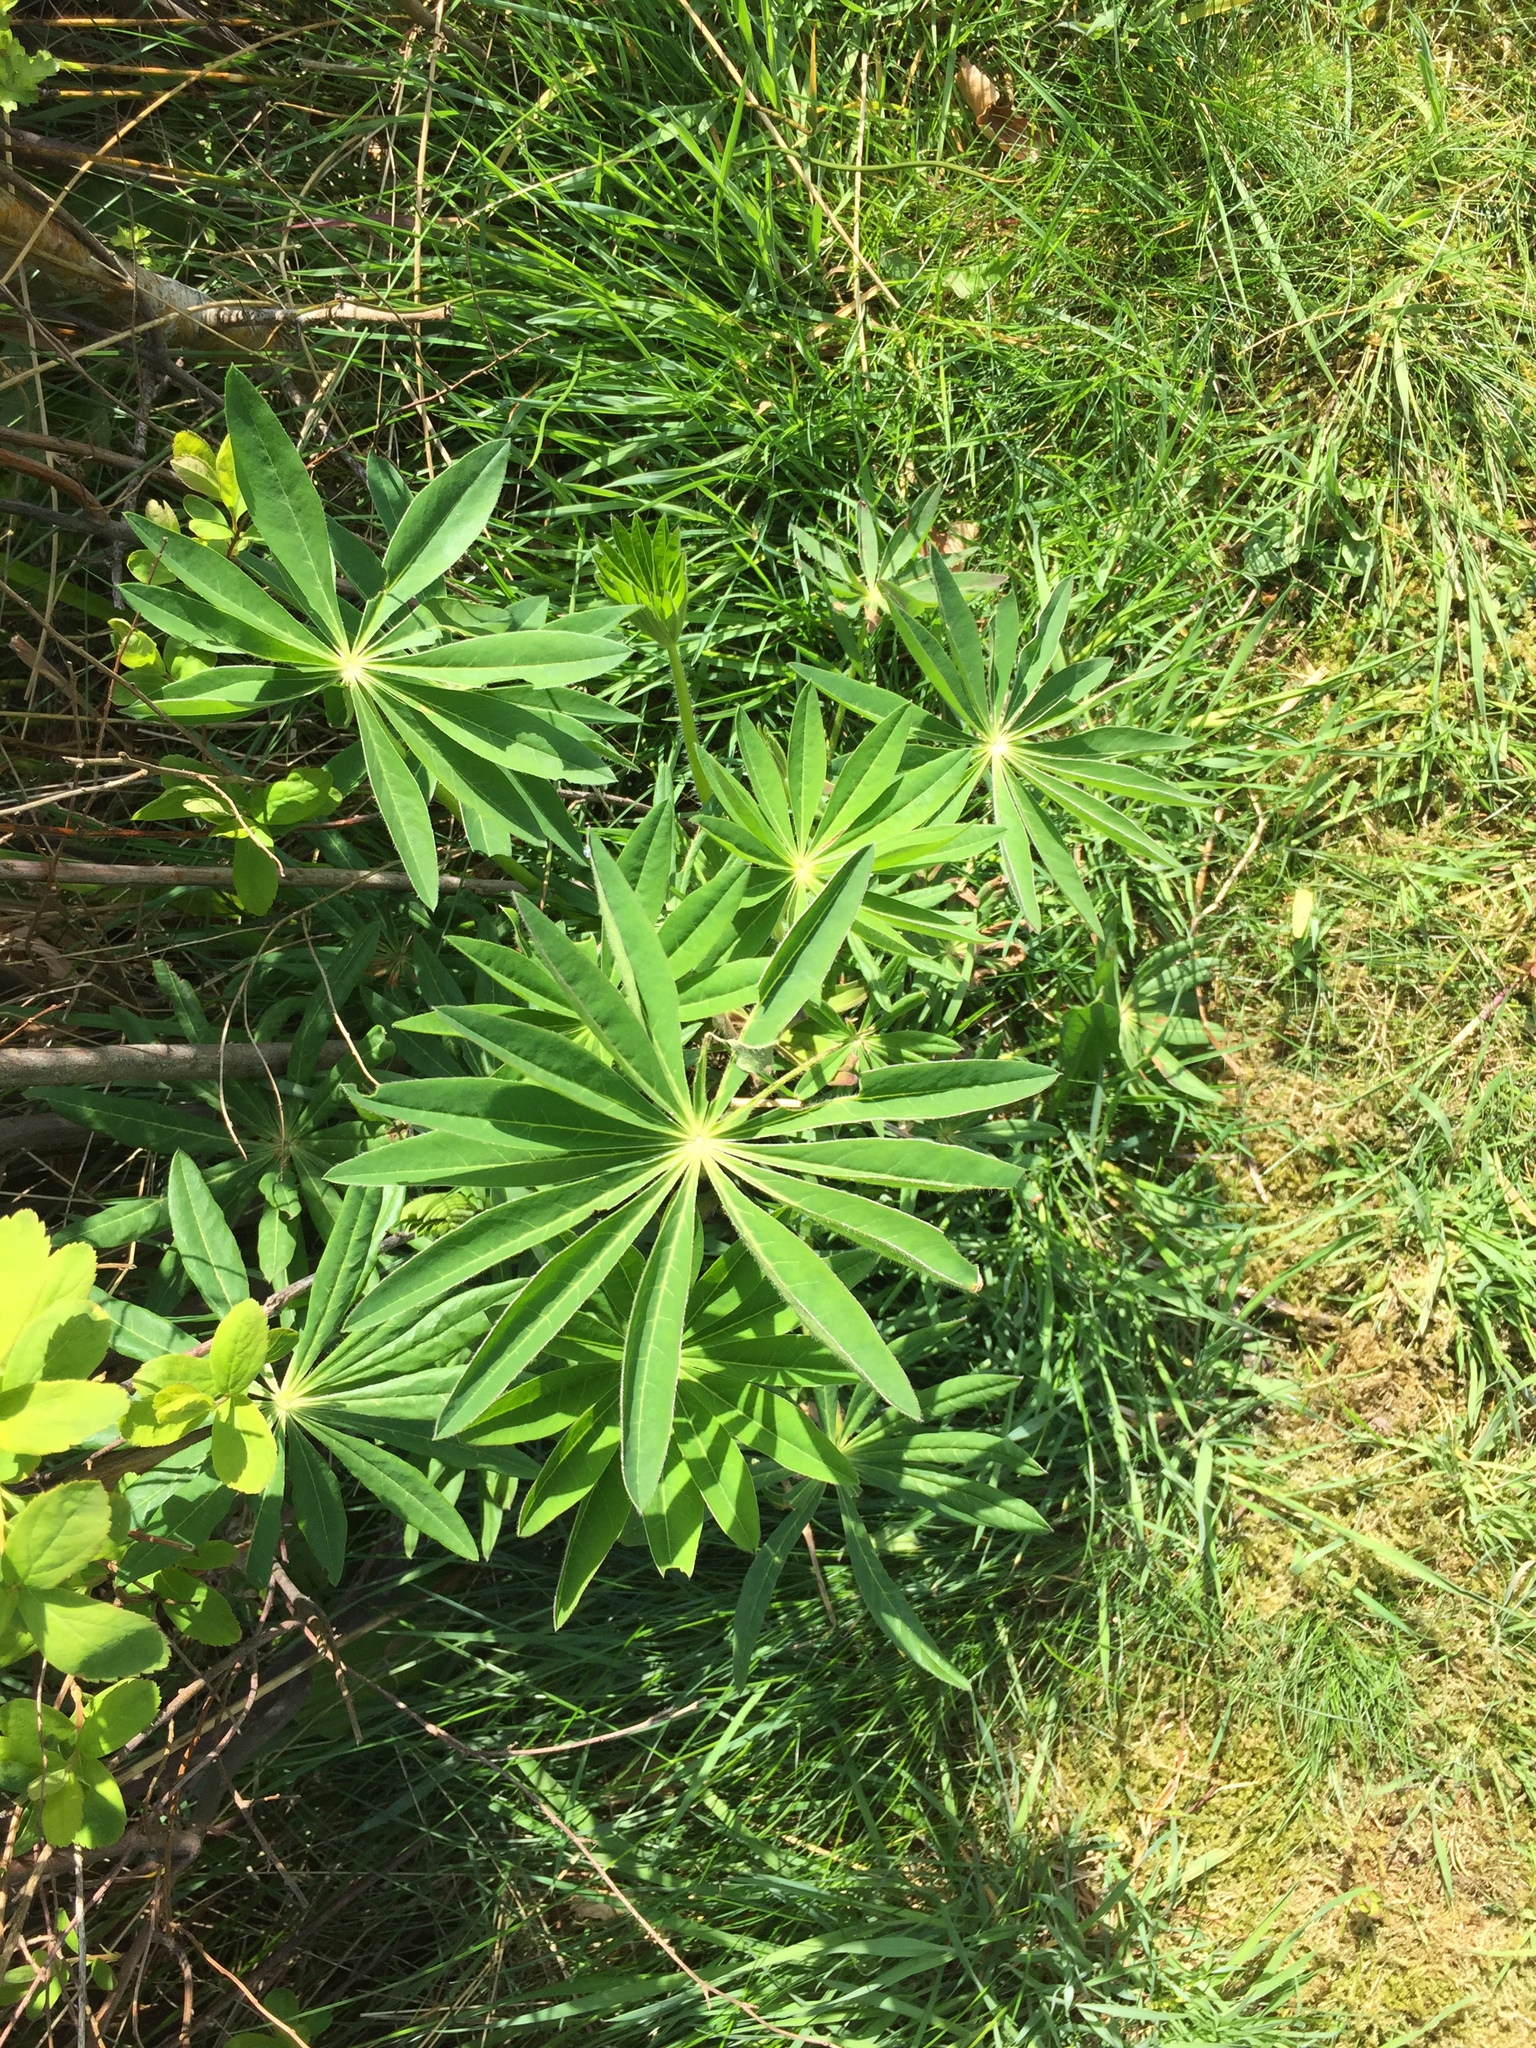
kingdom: Plantae
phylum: Tracheophyta
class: Magnoliopsida
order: Fabales
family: Fabaceae
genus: Lupinus
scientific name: Lupinus polyphyllus
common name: Garden lupin
